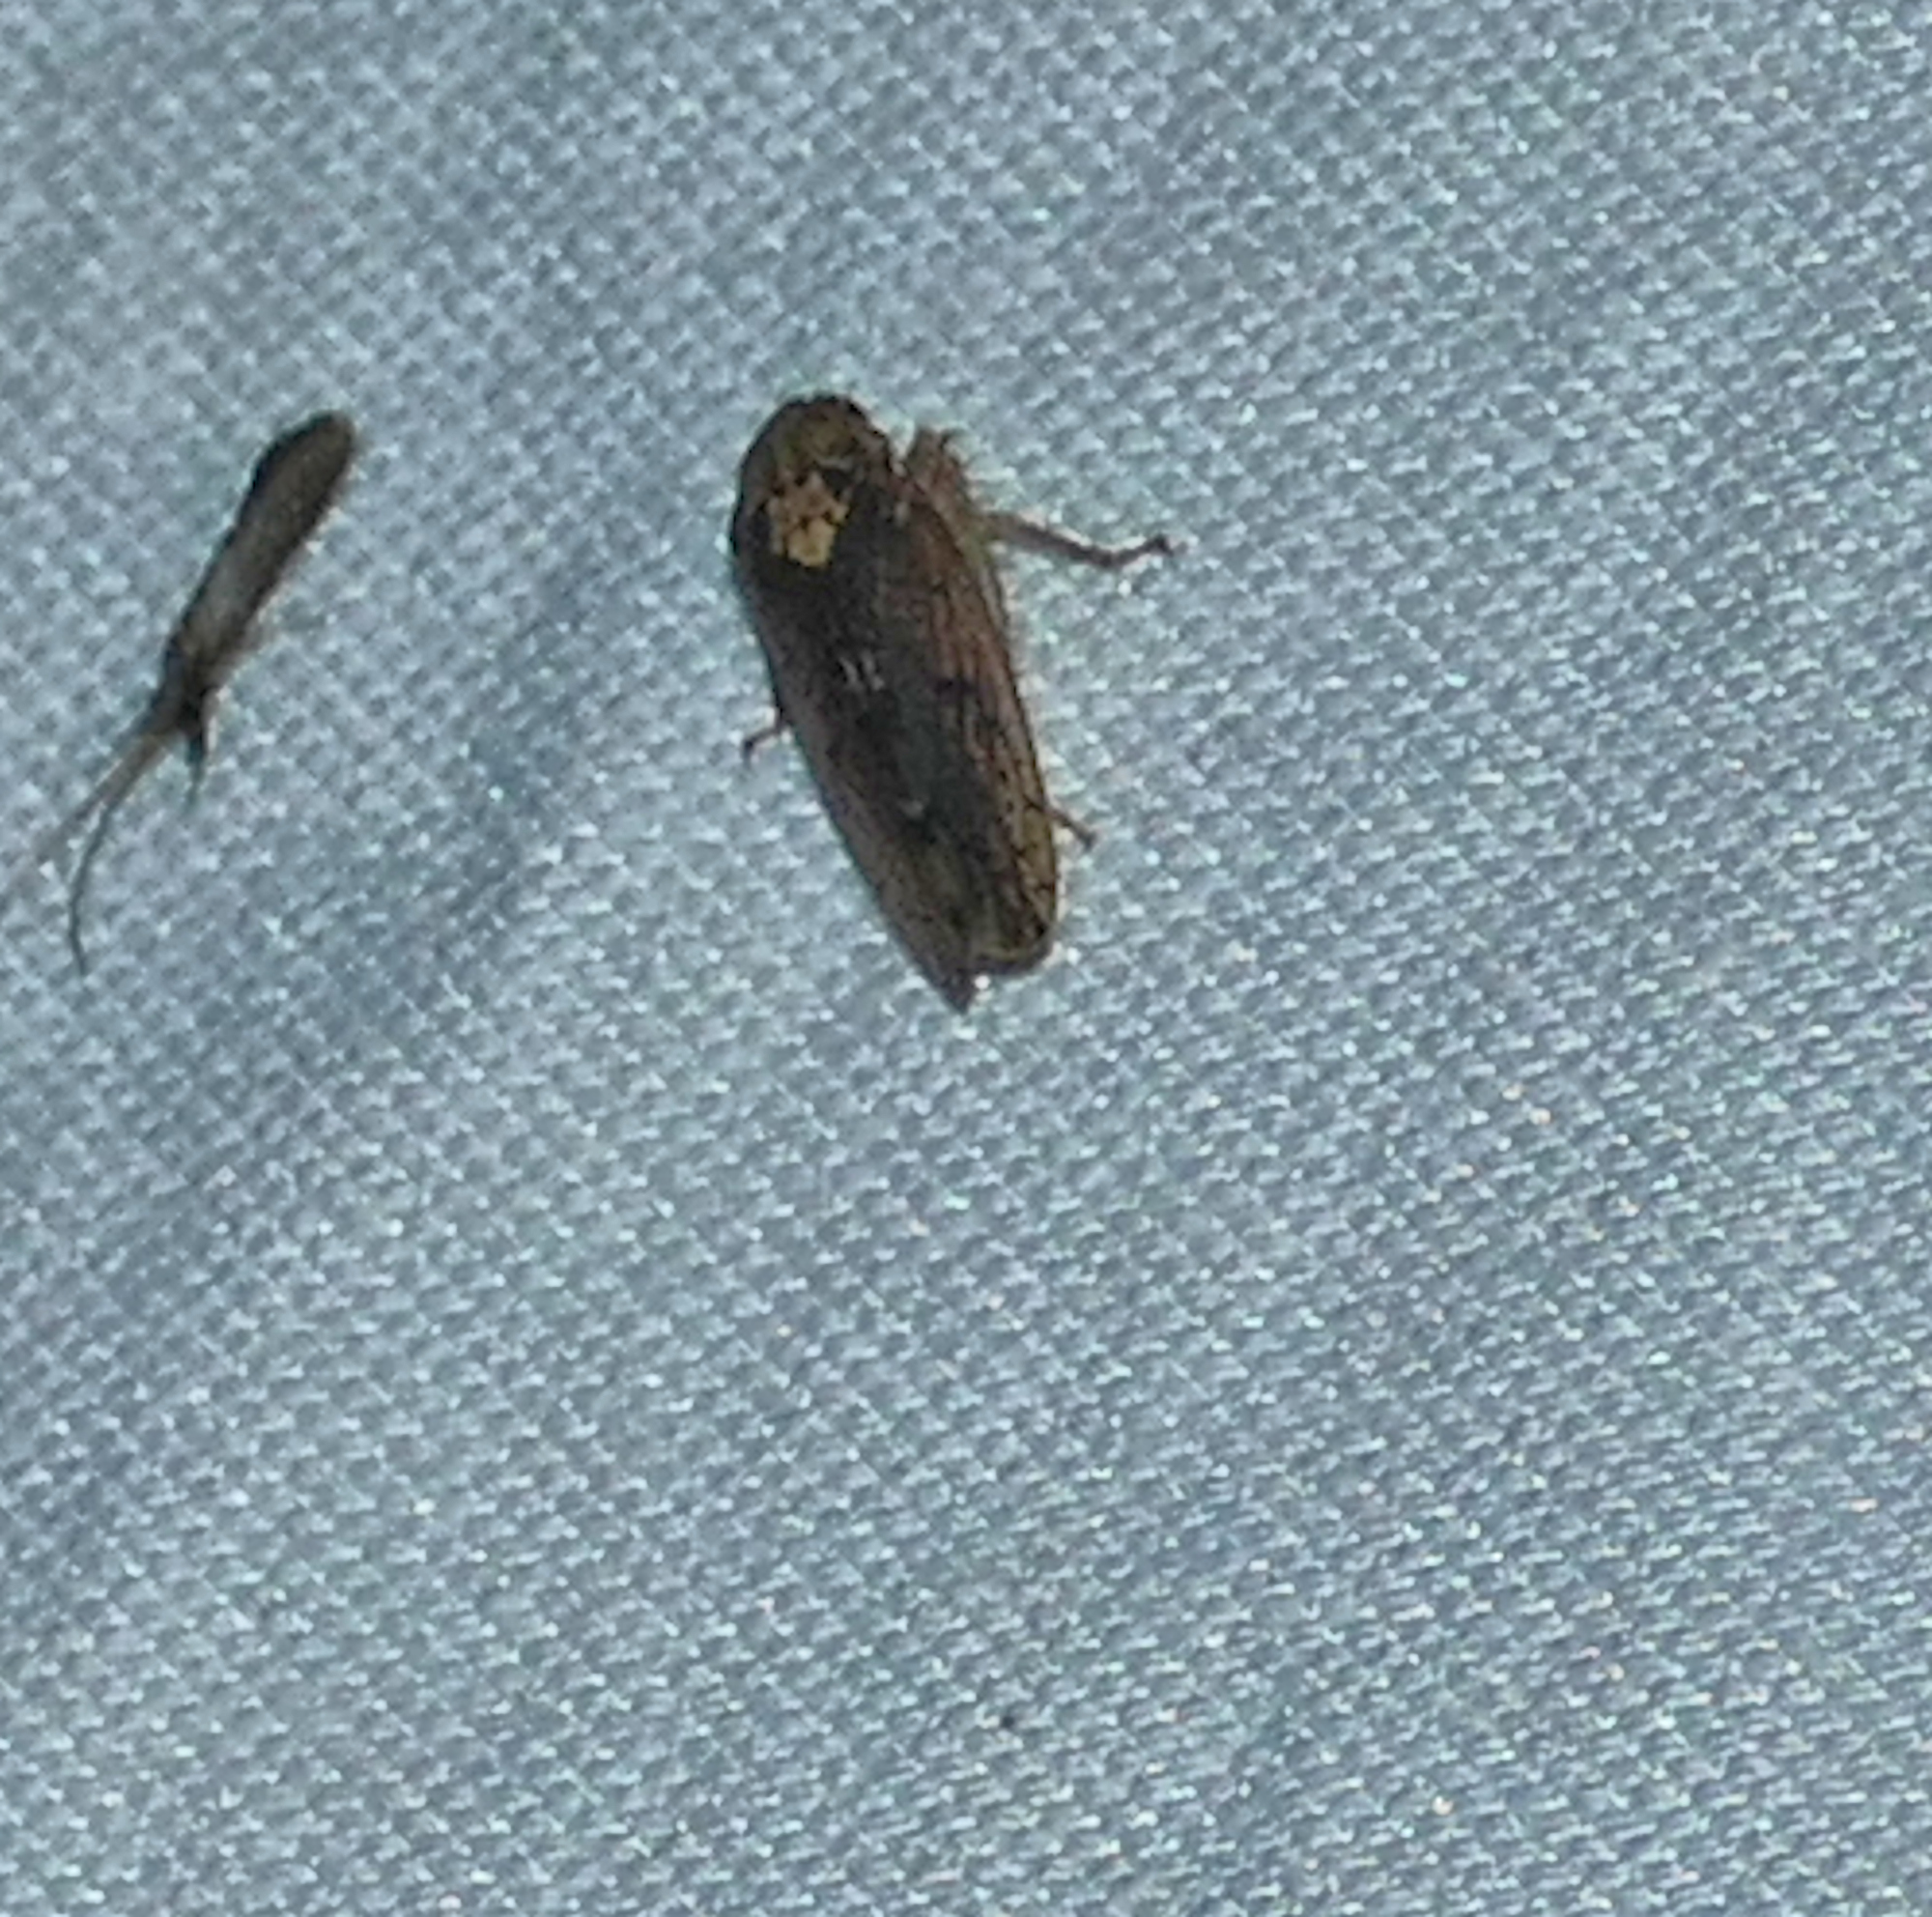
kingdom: Animalia
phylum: Arthropoda
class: Insecta
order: Hemiptera
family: Cicadellidae
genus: Ponana
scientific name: Ponana aquila
